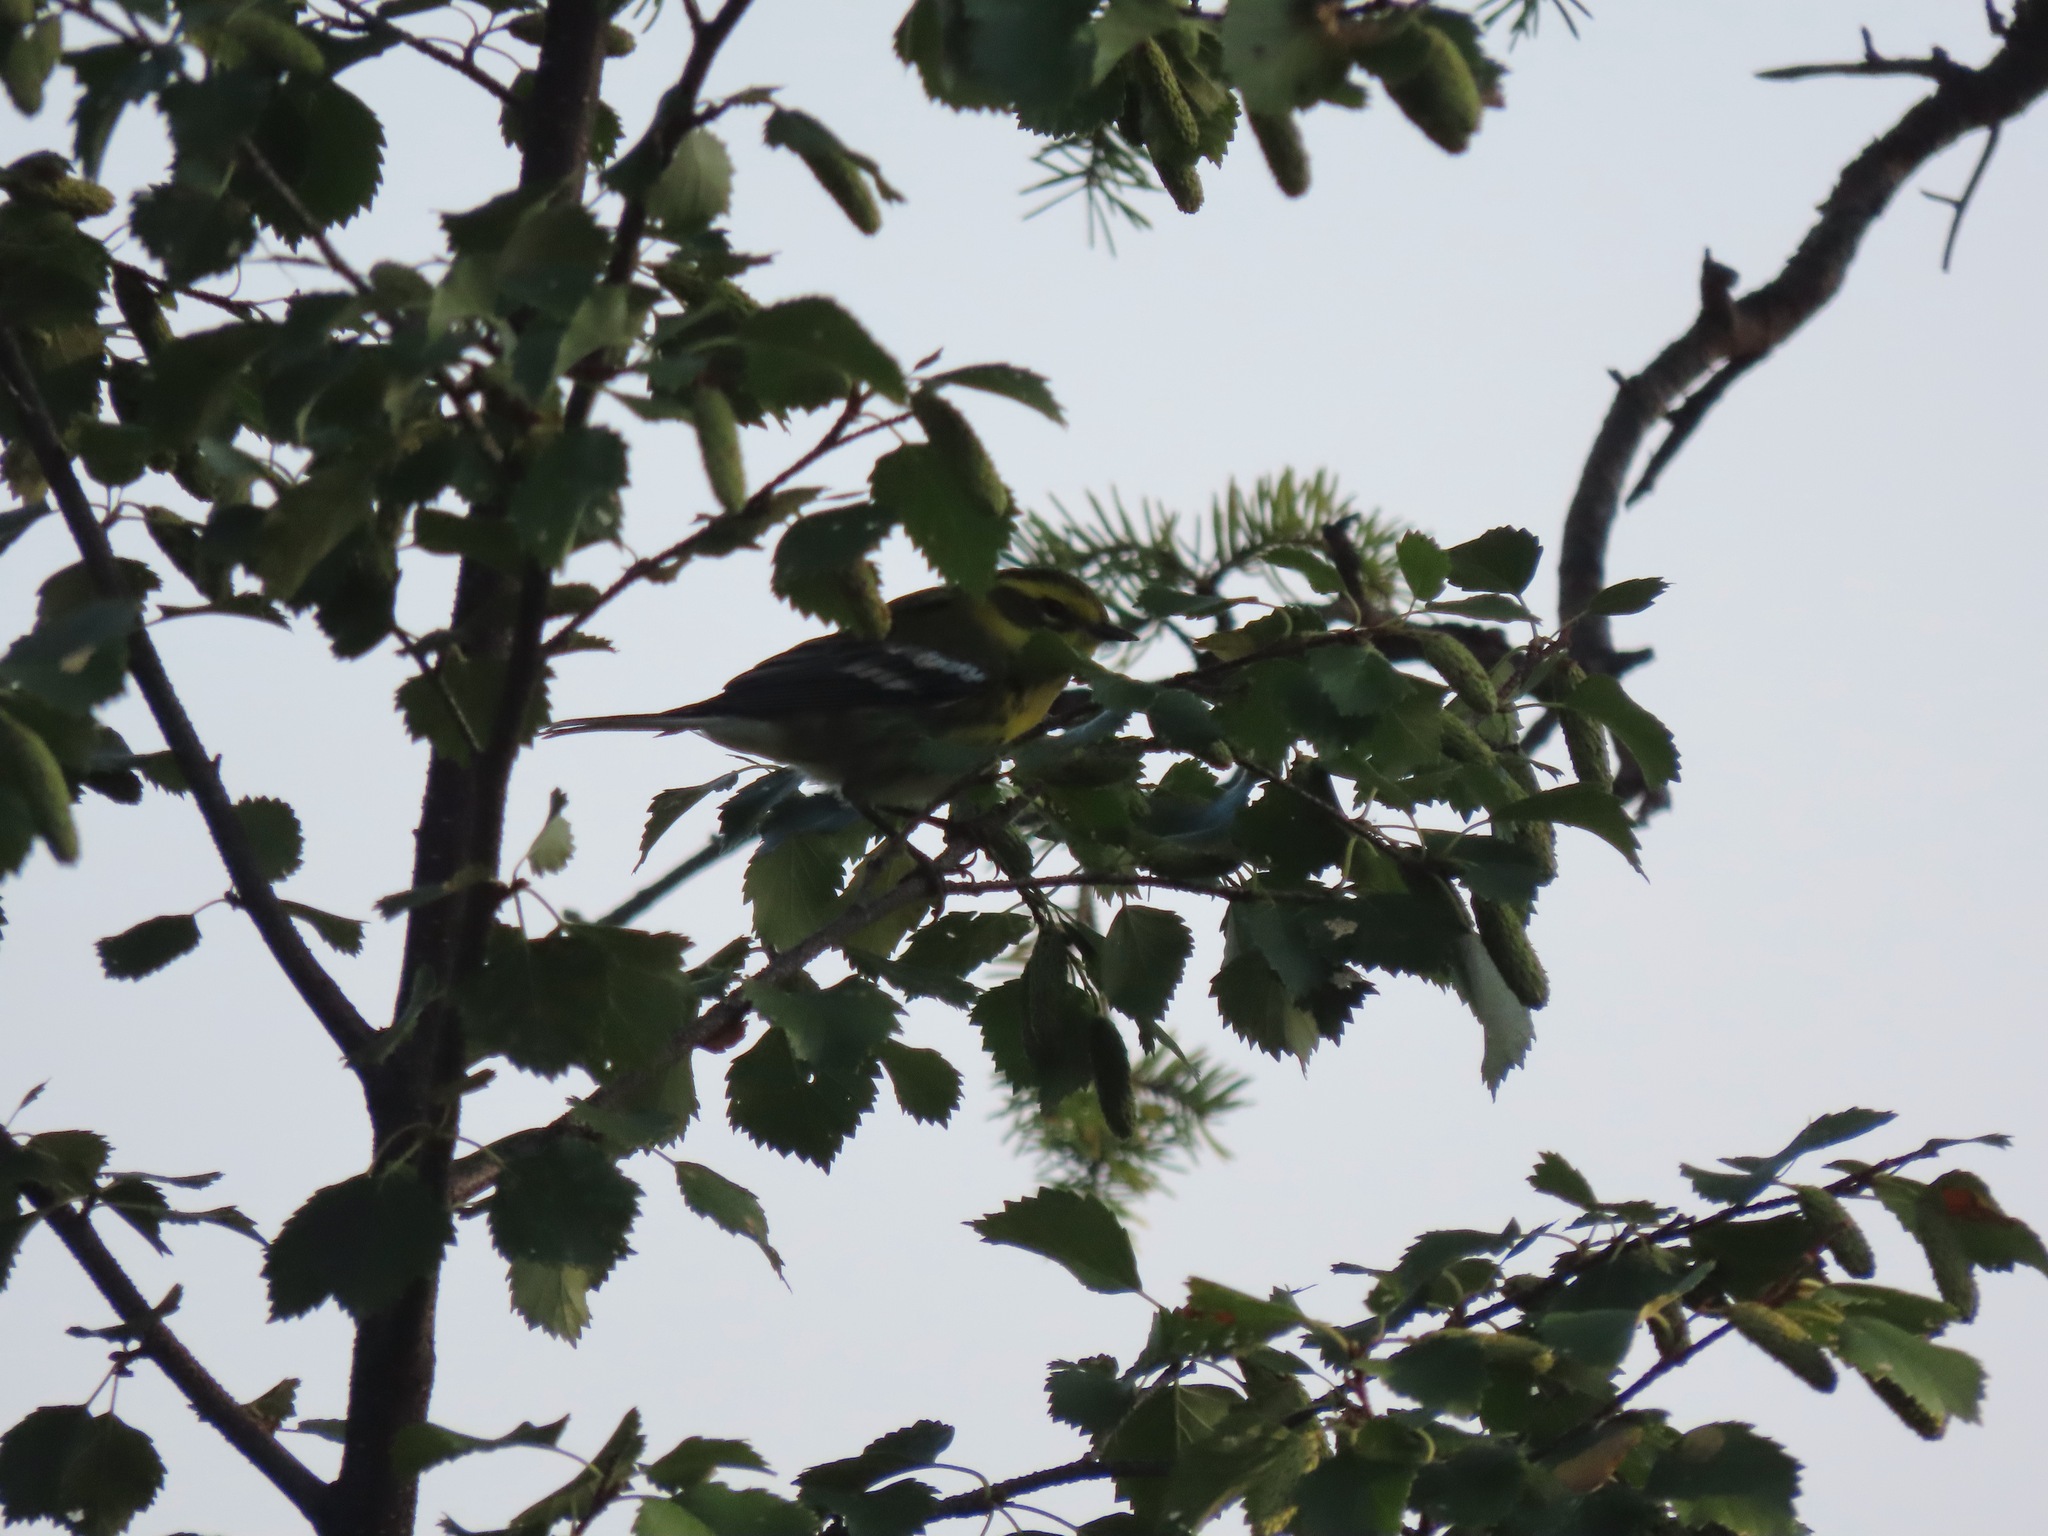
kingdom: Animalia
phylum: Chordata
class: Aves
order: Passeriformes
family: Parulidae
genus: Setophaga
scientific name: Setophaga townsendi
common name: Townsend's warbler
